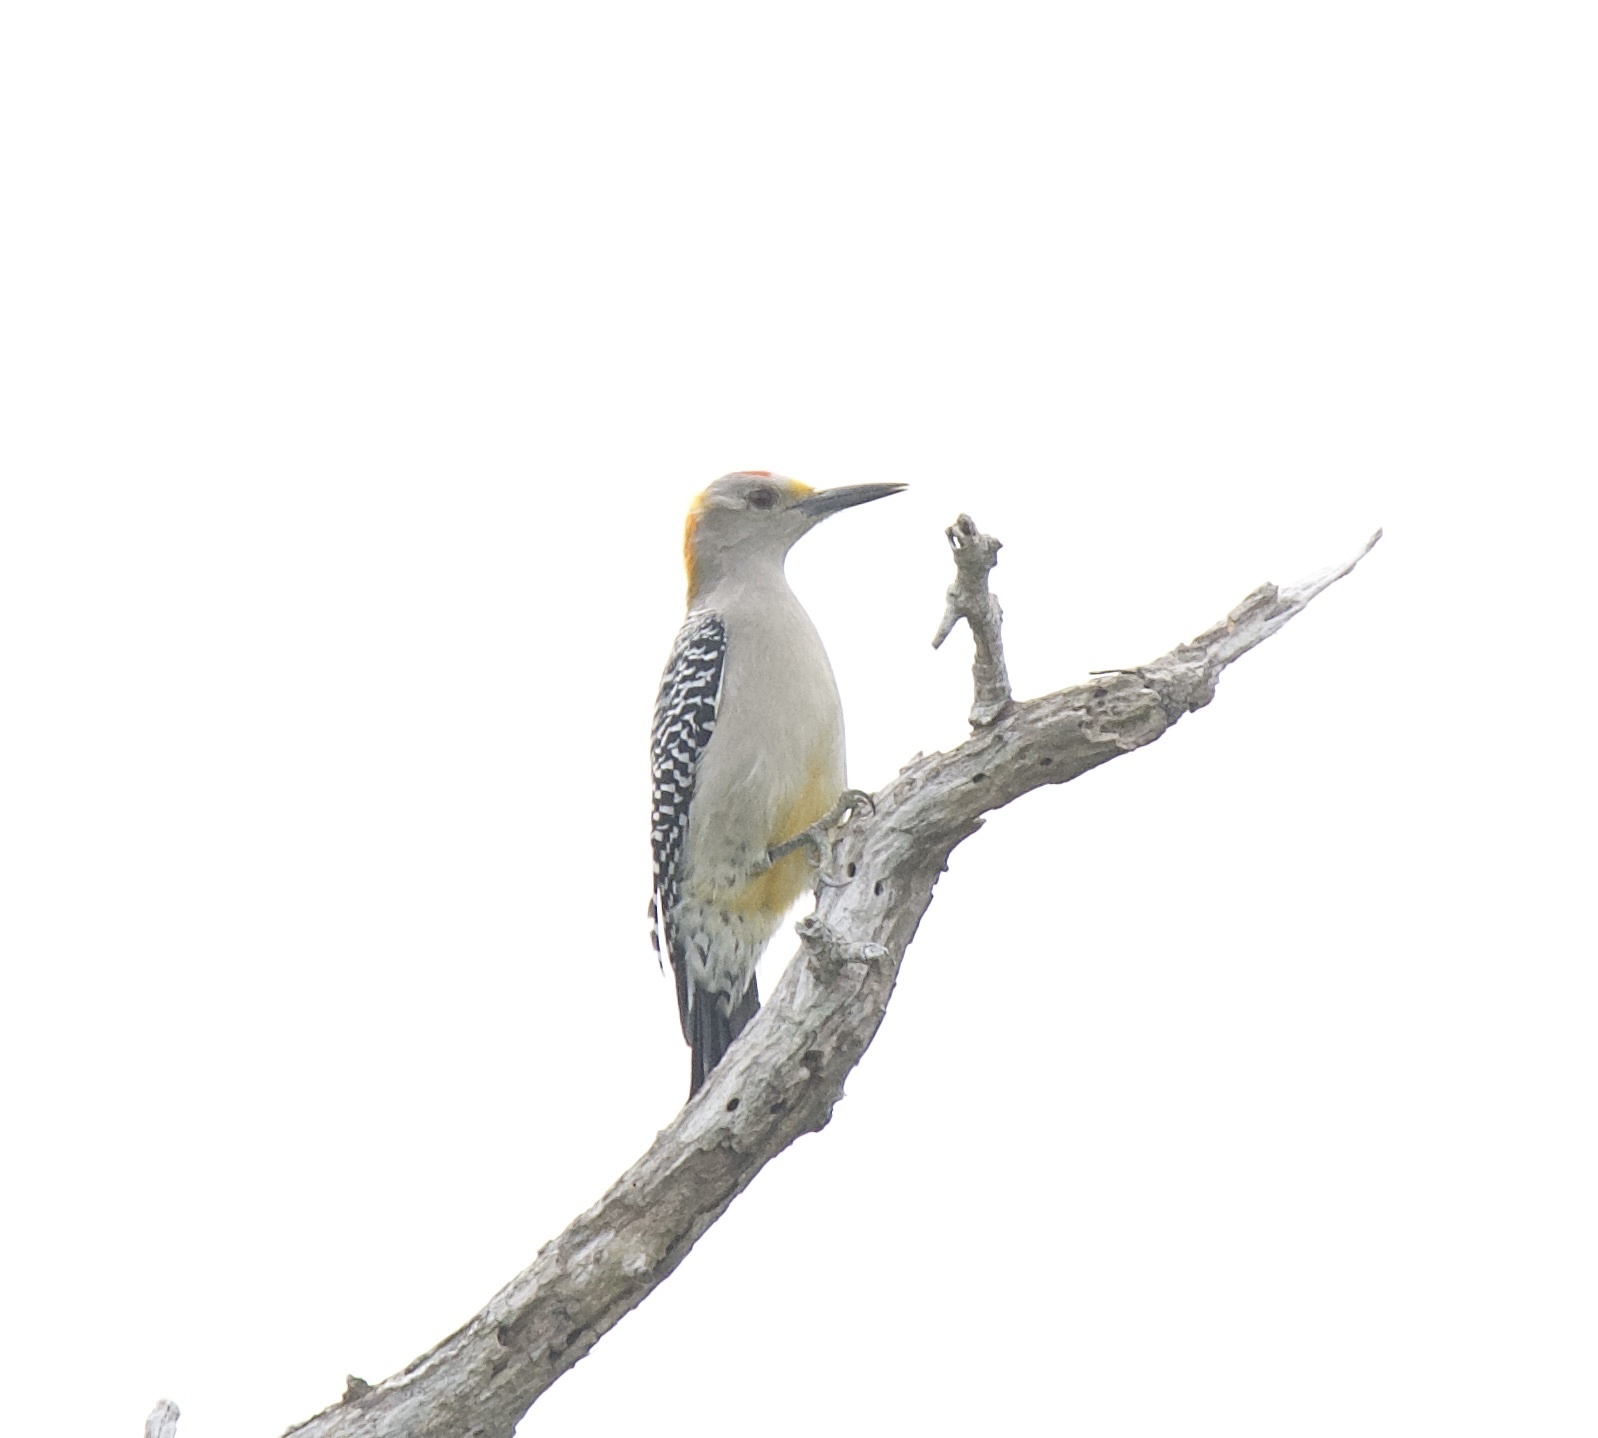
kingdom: Animalia
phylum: Chordata
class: Aves
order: Piciformes
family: Picidae
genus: Melanerpes
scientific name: Melanerpes aurifrons
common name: Golden-fronted woodpecker
